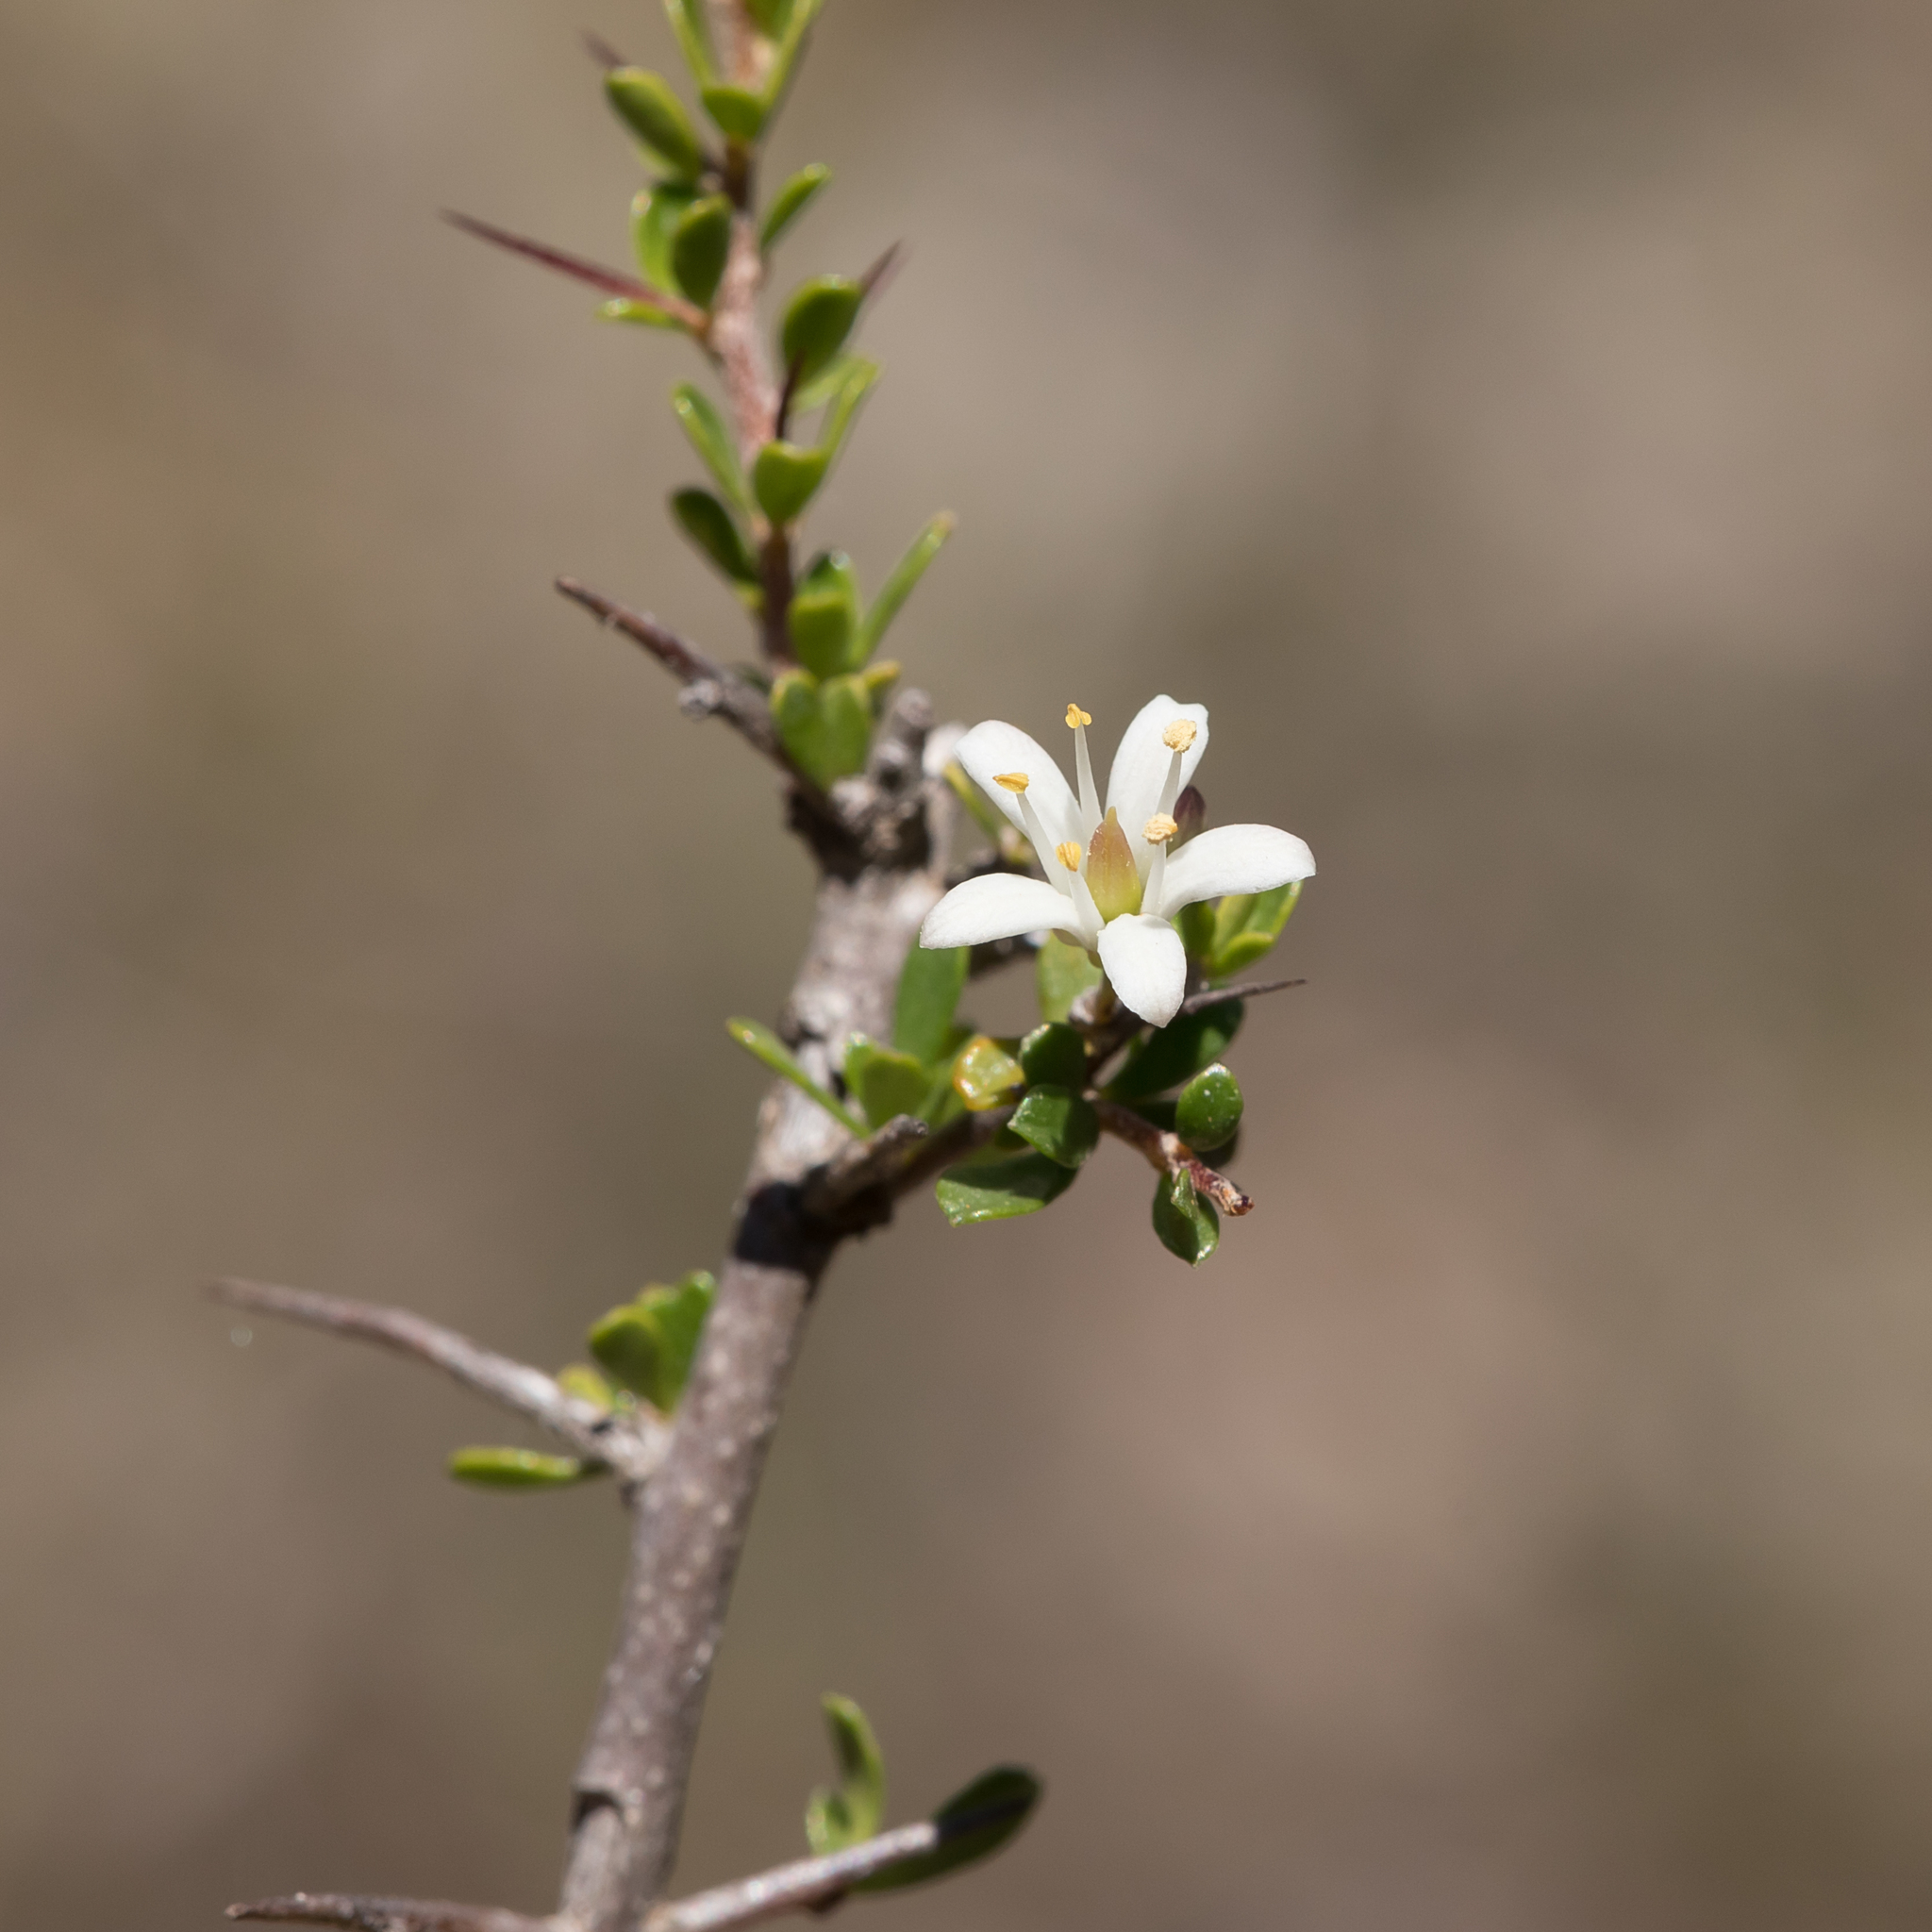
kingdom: Plantae
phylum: Tracheophyta
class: Magnoliopsida
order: Apiales
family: Pittosporaceae
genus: Bursaria
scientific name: Bursaria spinosa
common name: Australian blackthorn
